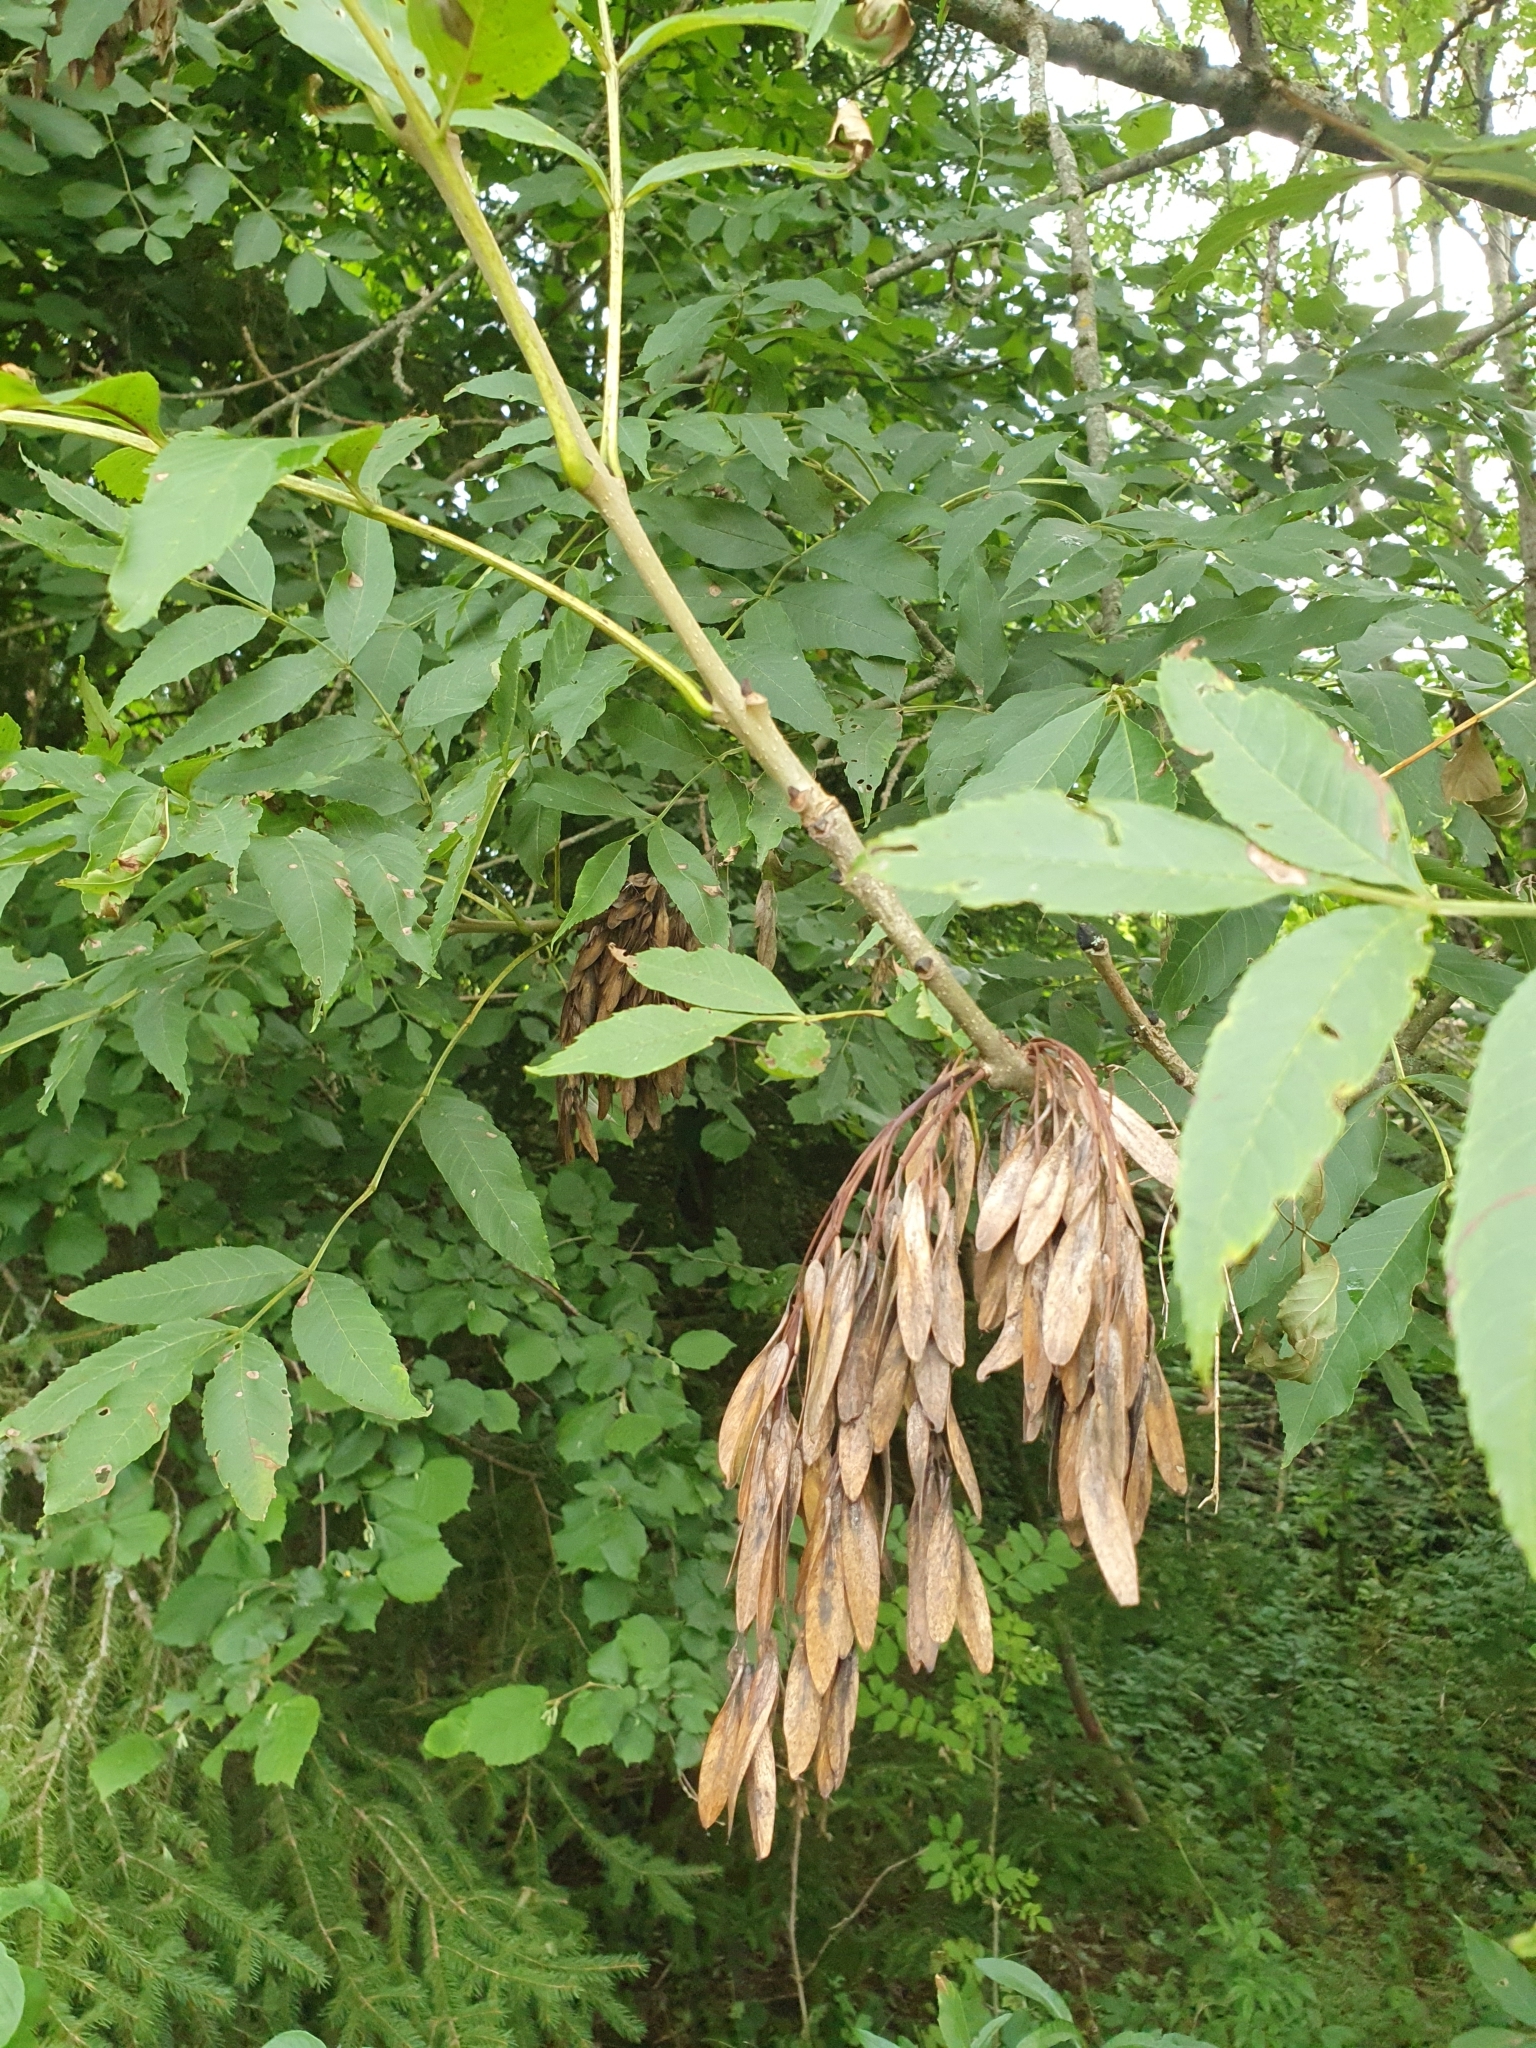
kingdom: Plantae
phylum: Tracheophyta
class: Magnoliopsida
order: Lamiales
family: Oleaceae
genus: Fraxinus
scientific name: Fraxinus excelsior
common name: European ash
